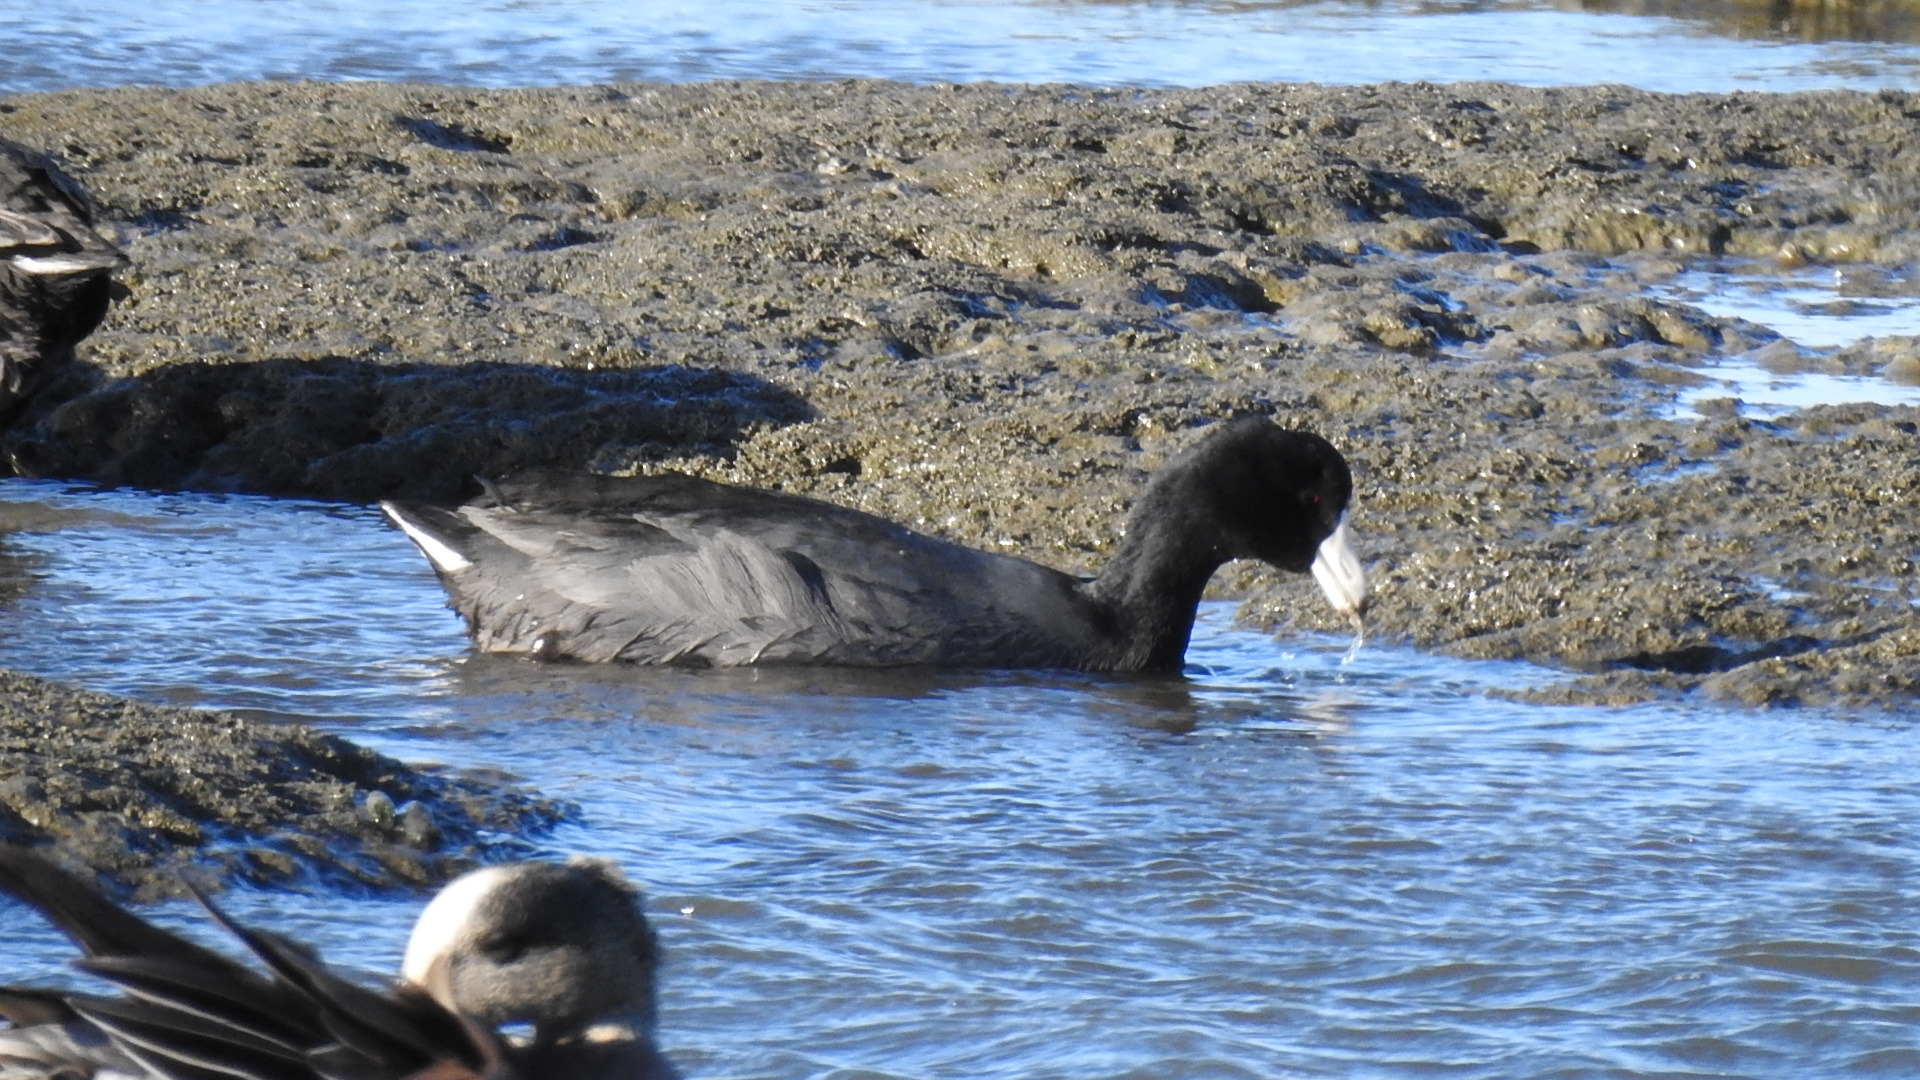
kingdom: Animalia
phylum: Chordata
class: Aves
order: Gruiformes
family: Rallidae
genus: Fulica
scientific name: Fulica americana
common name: American coot
